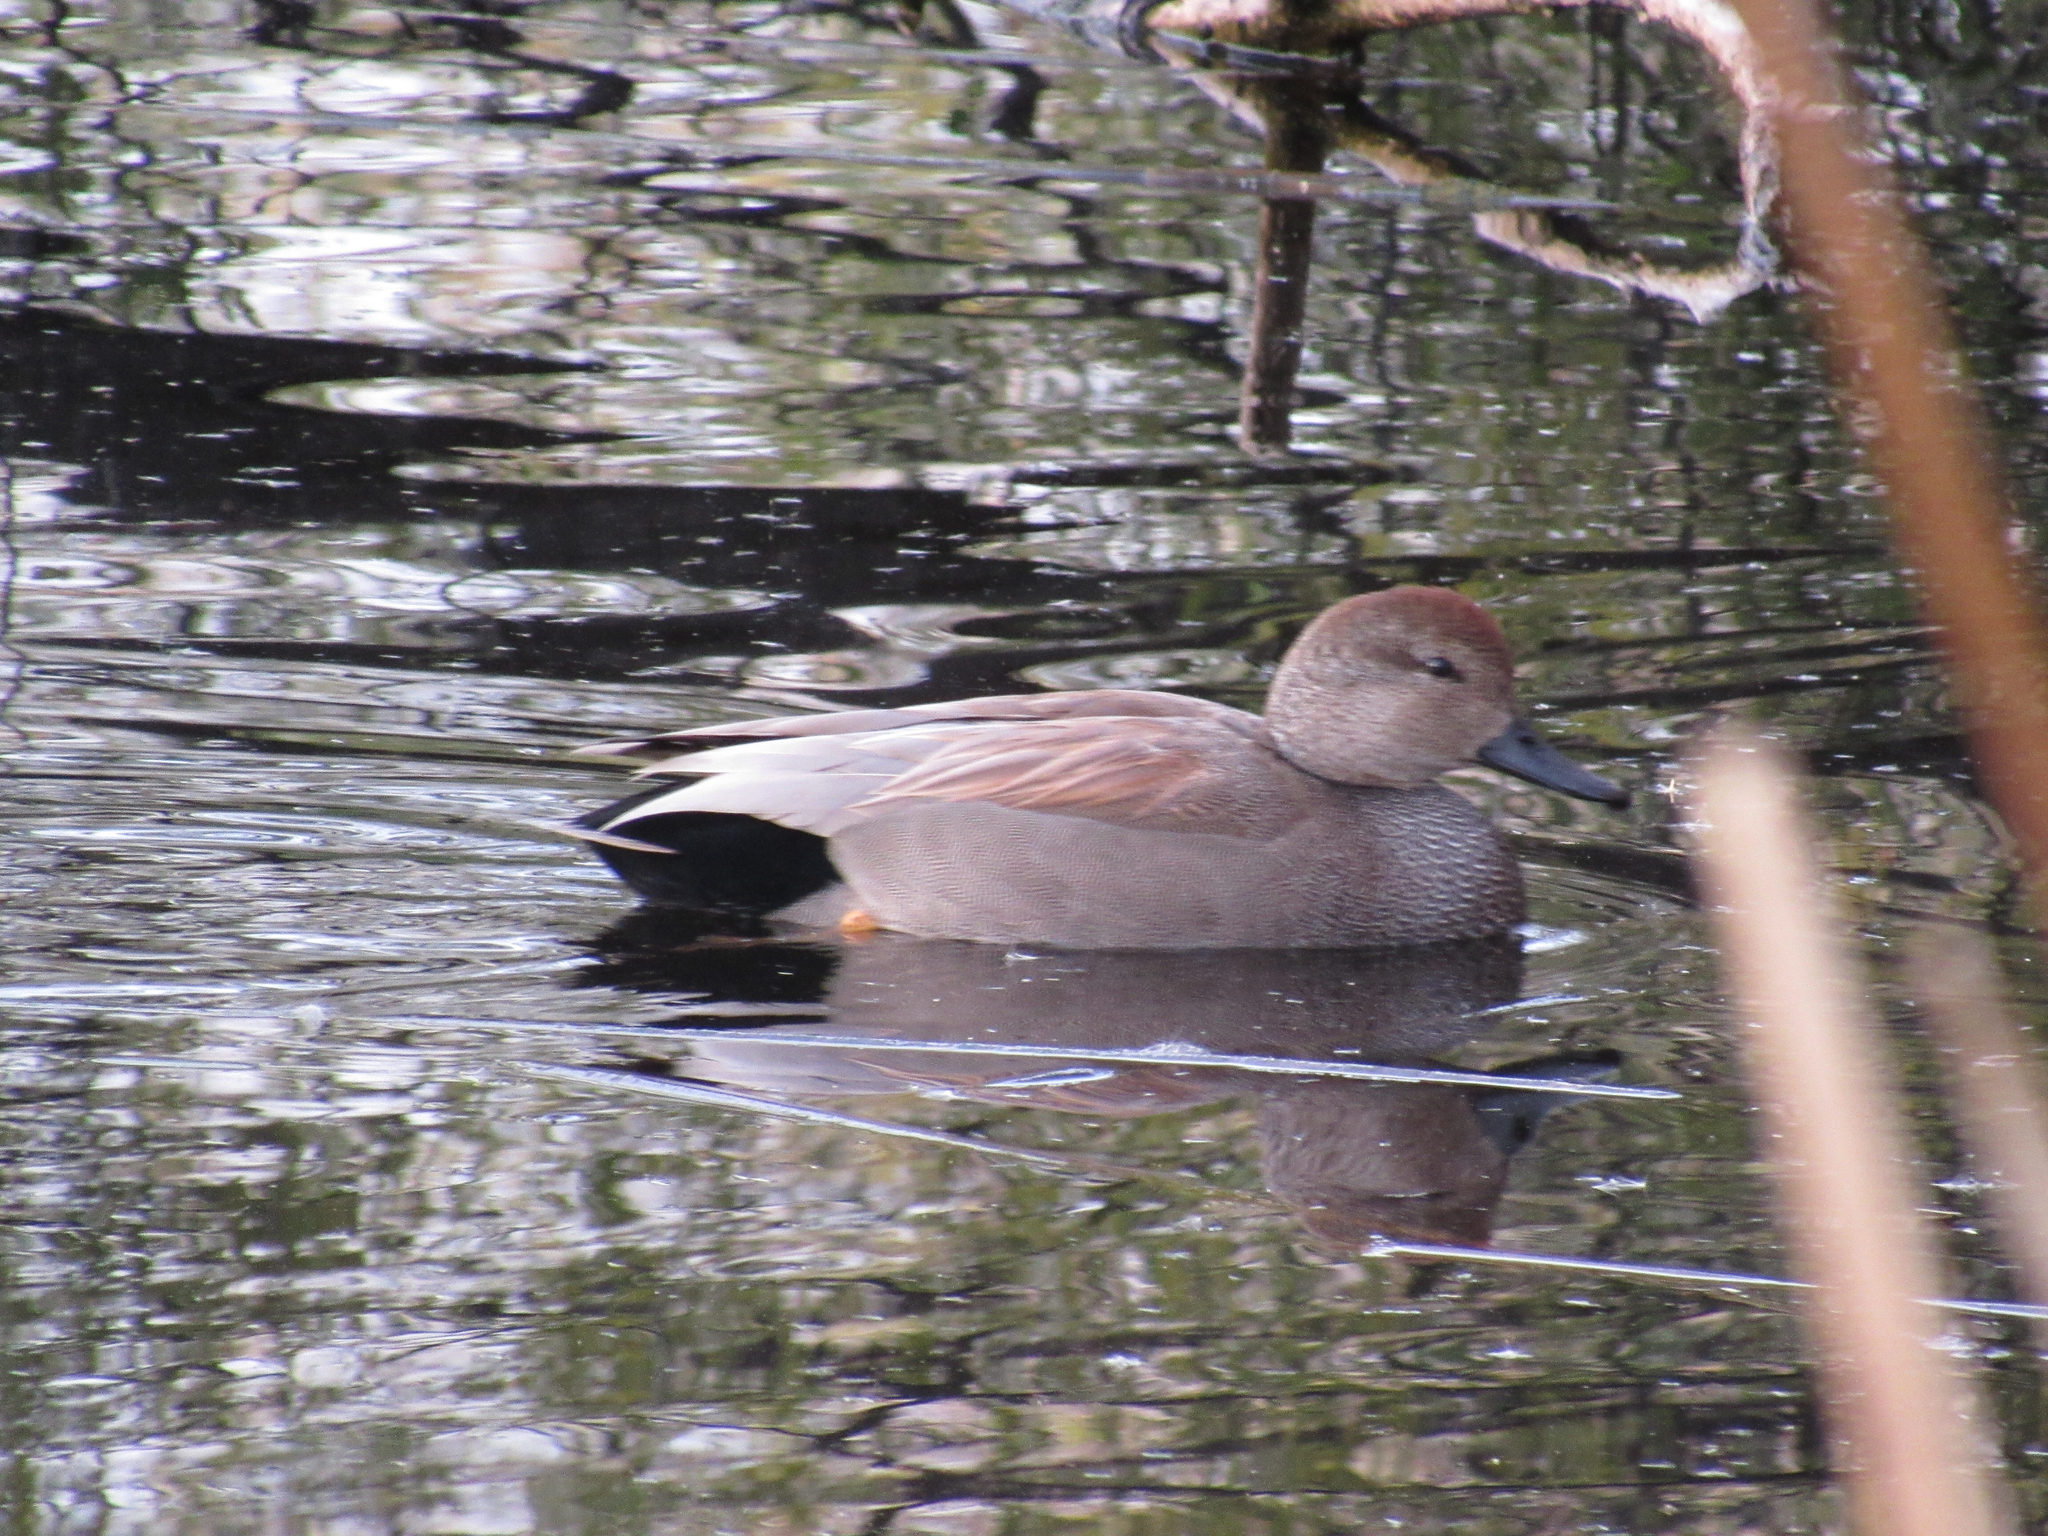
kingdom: Animalia
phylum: Chordata
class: Aves
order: Anseriformes
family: Anatidae
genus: Mareca
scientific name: Mareca strepera
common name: Gadwall
